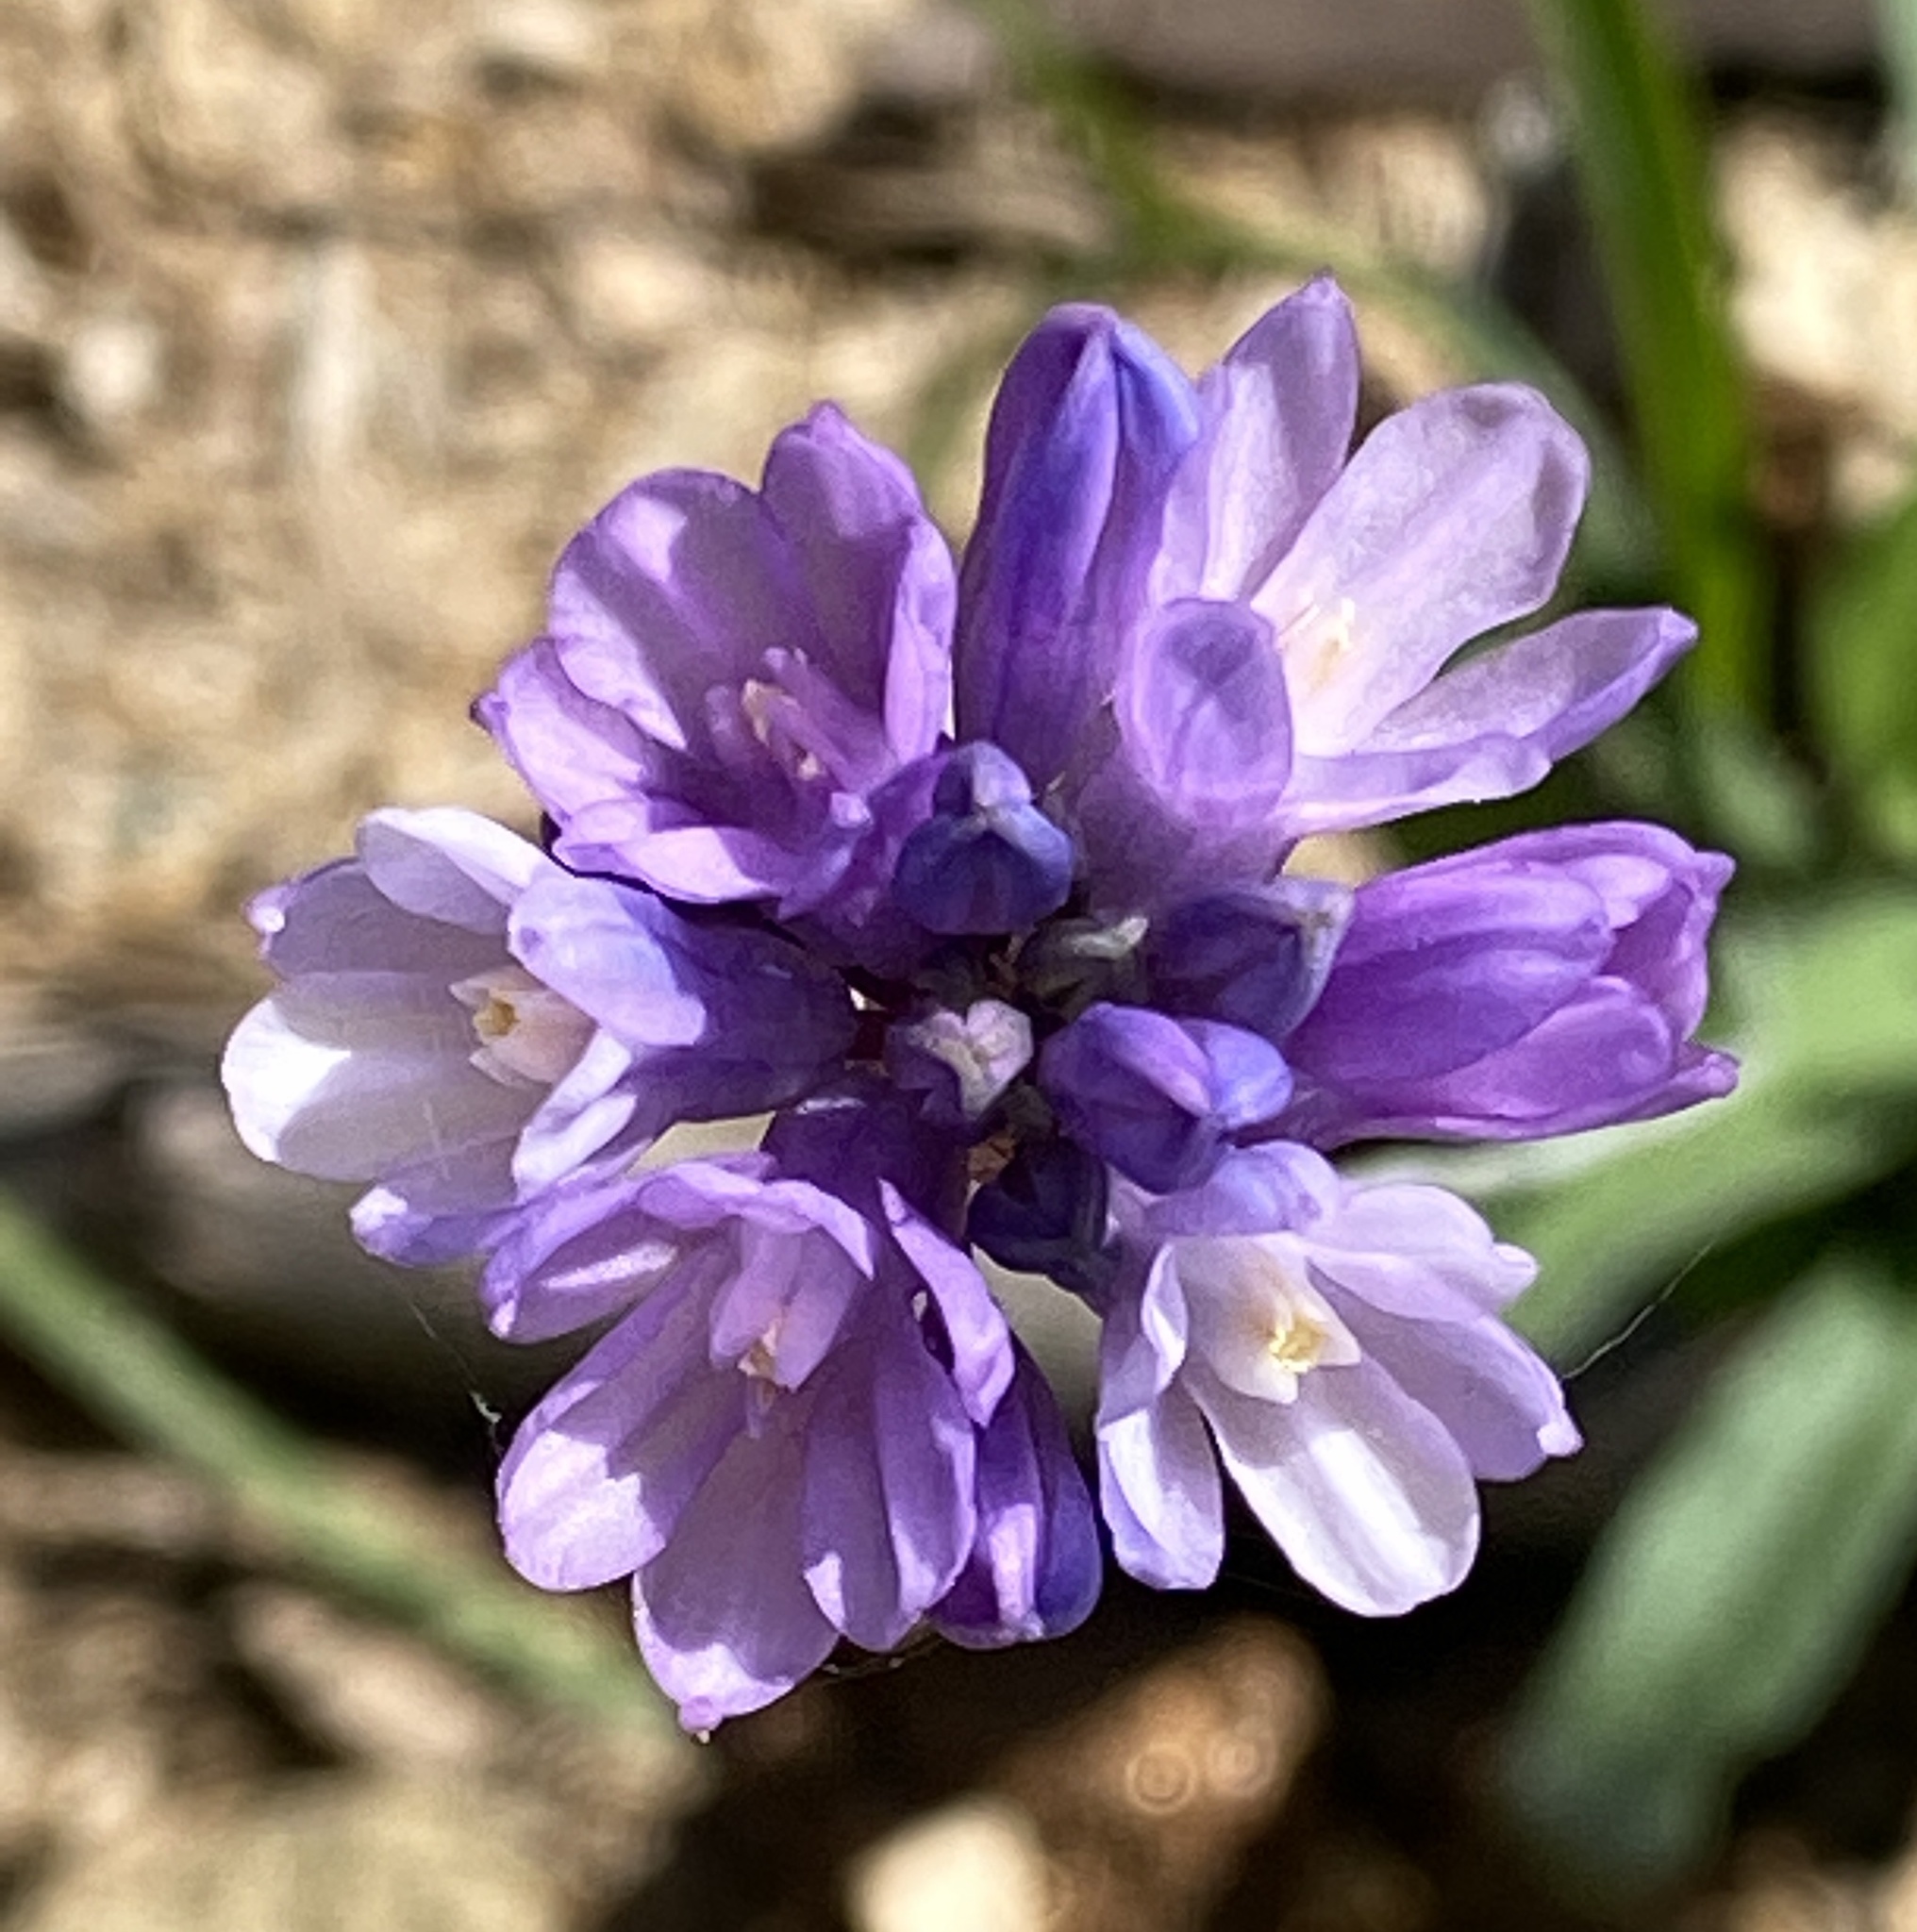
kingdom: Plantae
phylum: Tracheophyta
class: Liliopsida
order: Asparagales
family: Asparagaceae
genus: Dipterostemon
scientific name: Dipterostemon capitatus
